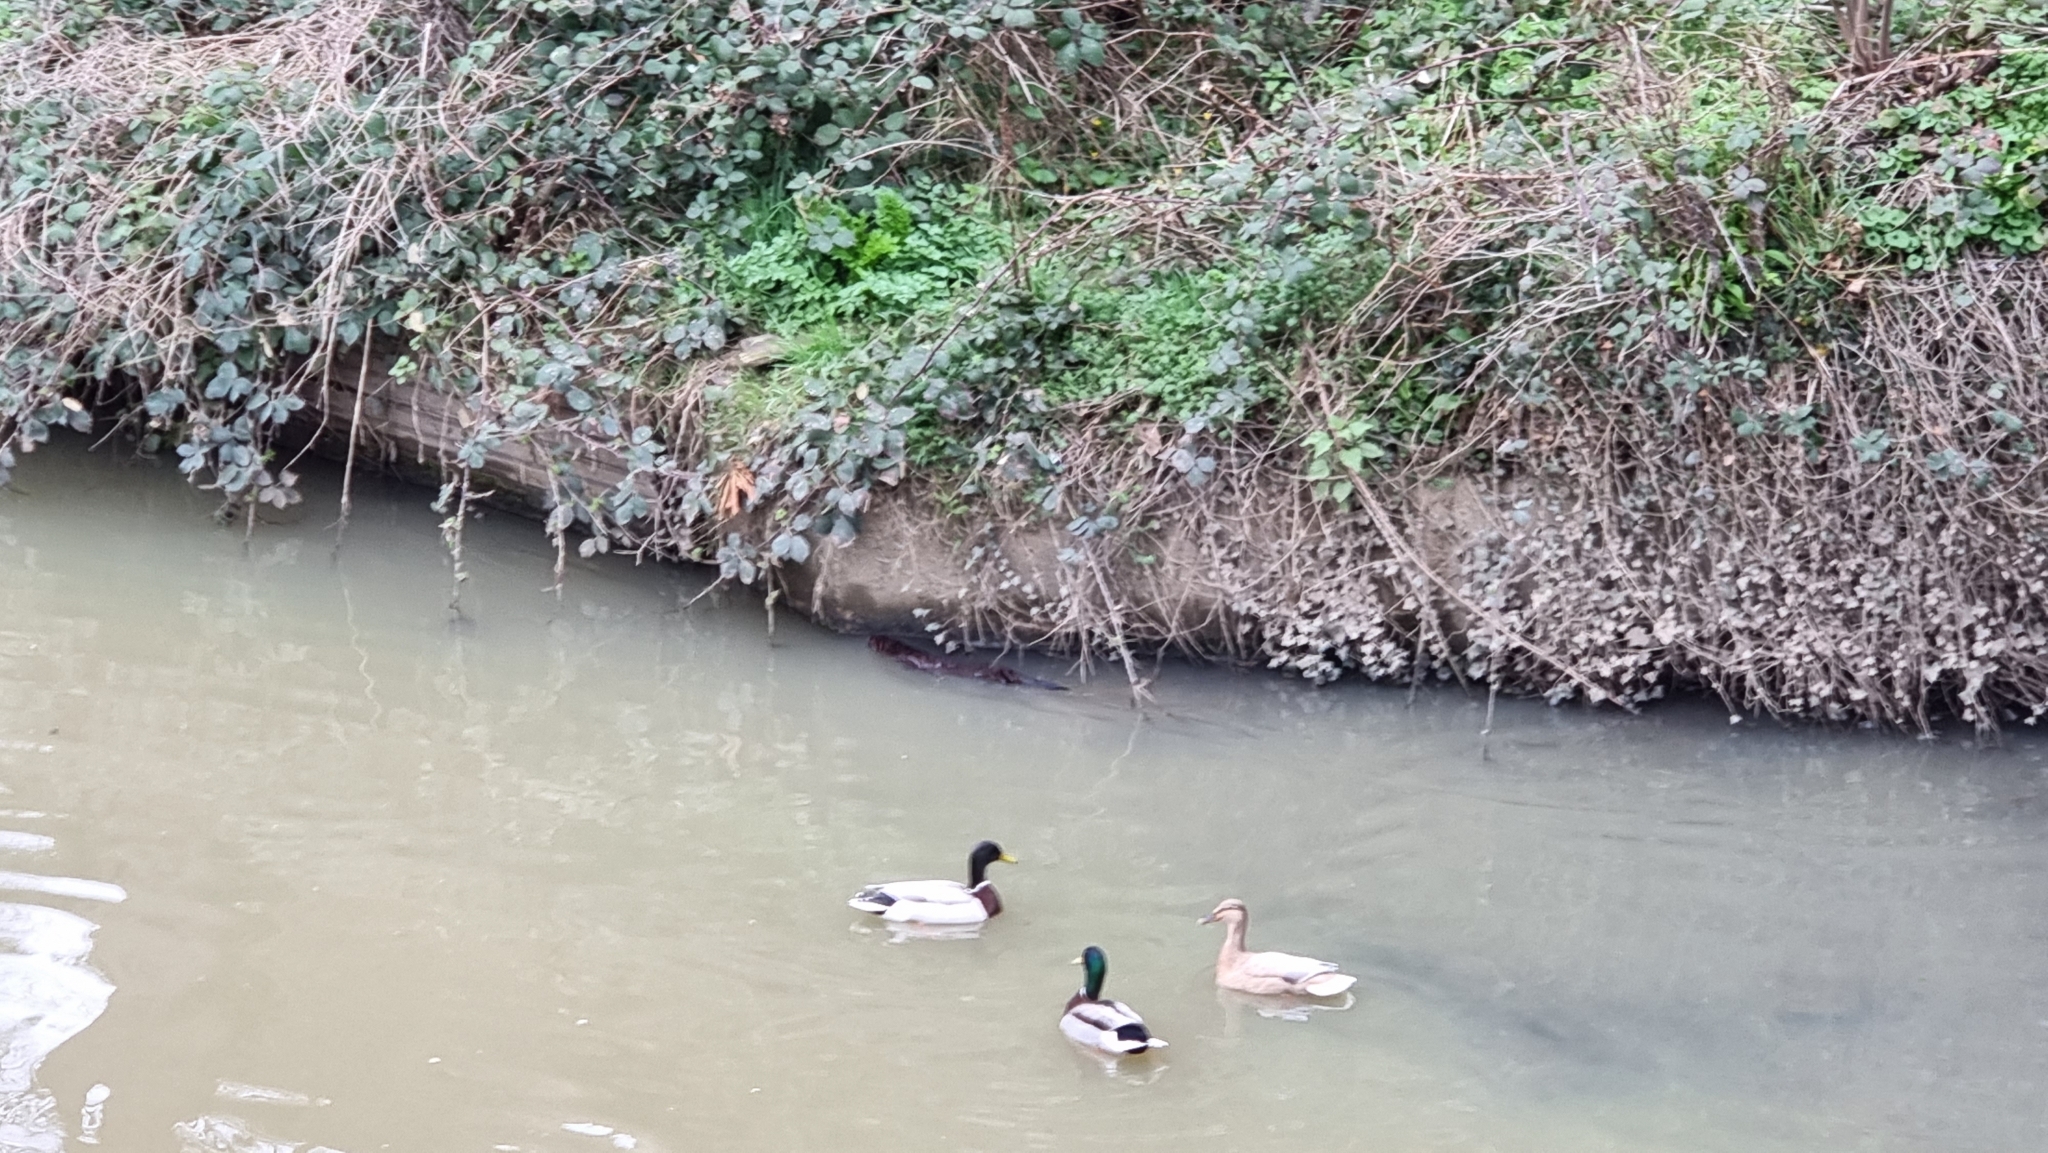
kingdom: Animalia
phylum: Chordata
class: Mammalia
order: Carnivora
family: Mustelidae
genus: Lutra
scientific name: Lutra lutra
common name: European otter
